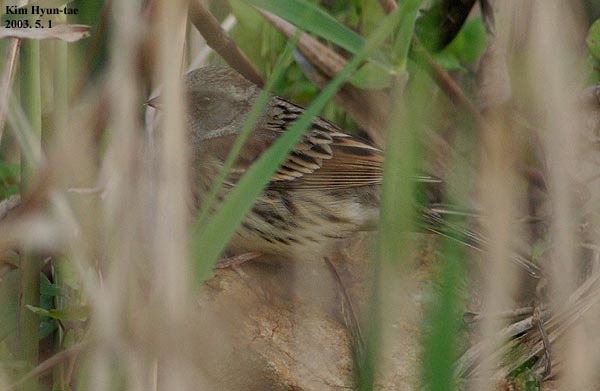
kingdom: Animalia
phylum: Chordata
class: Aves
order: Passeriformes
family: Emberizidae
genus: Emberiza
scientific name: Emberiza spodocephala
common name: Black-faced bunting
